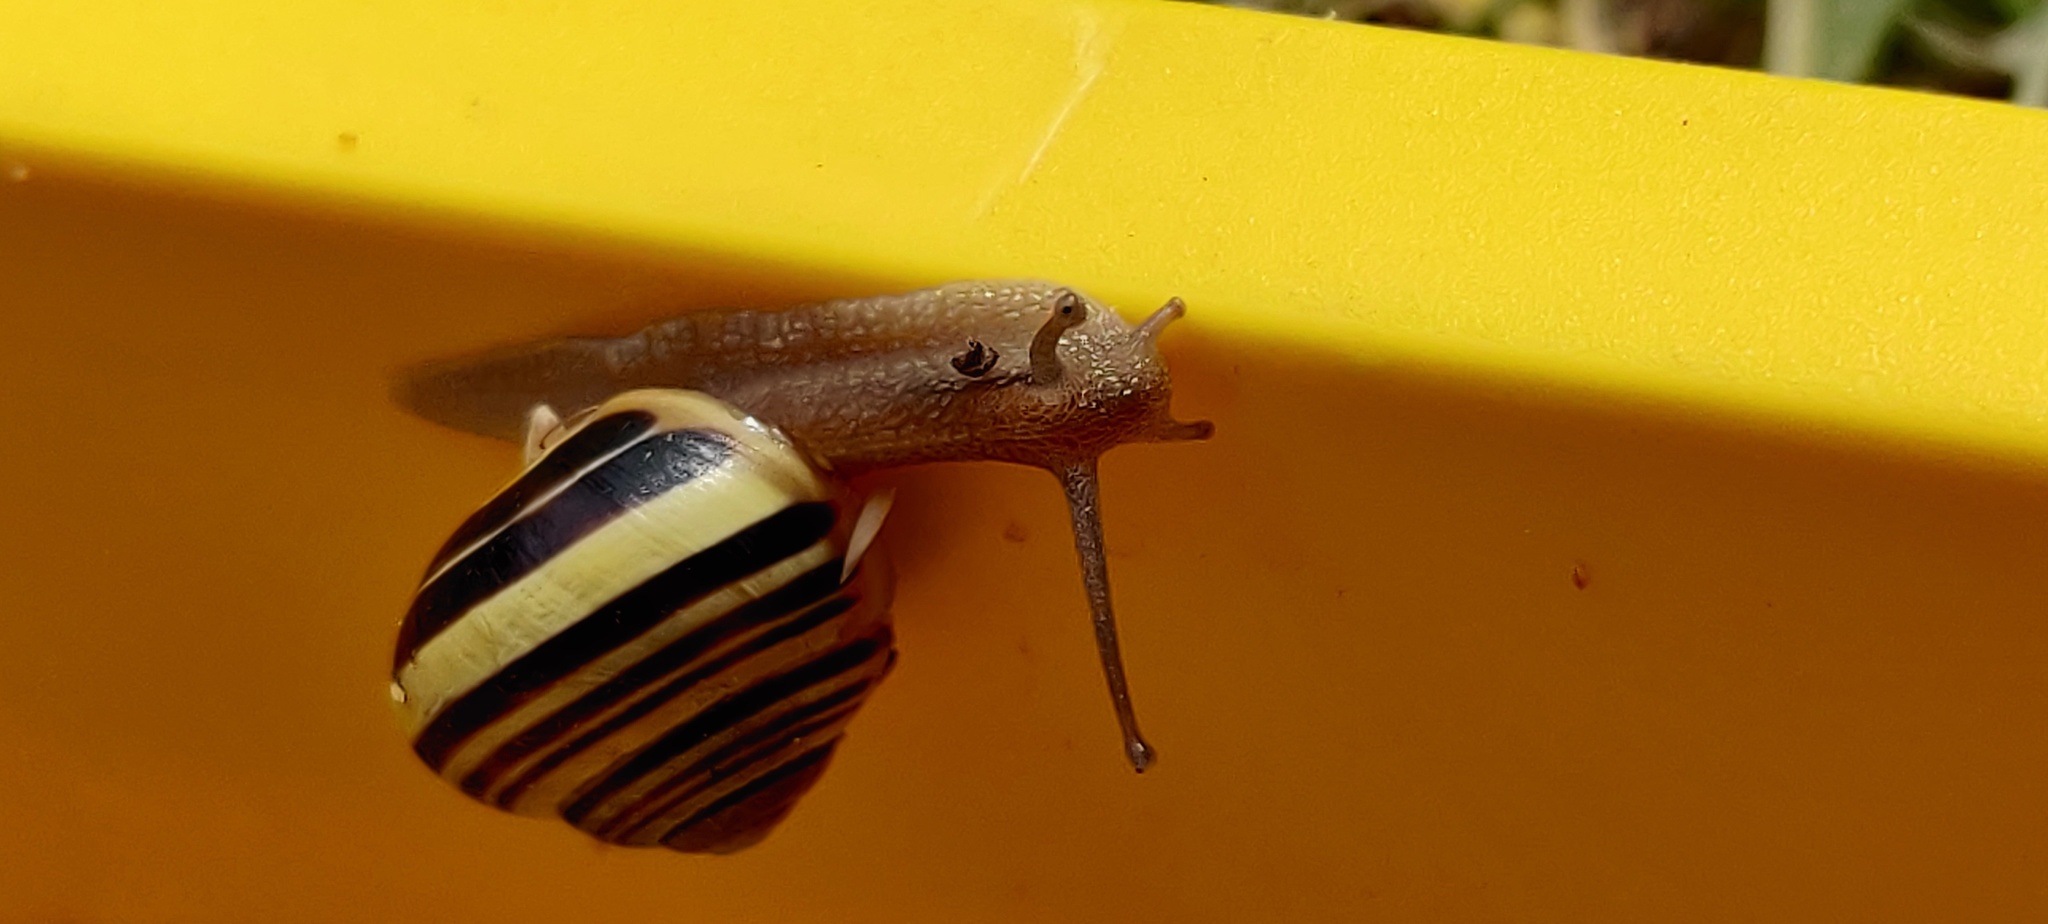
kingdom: Animalia
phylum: Mollusca
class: Gastropoda
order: Stylommatophora
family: Helicidae
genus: Cepaea
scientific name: Cepaea hortensis
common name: White-lip gardensnail
